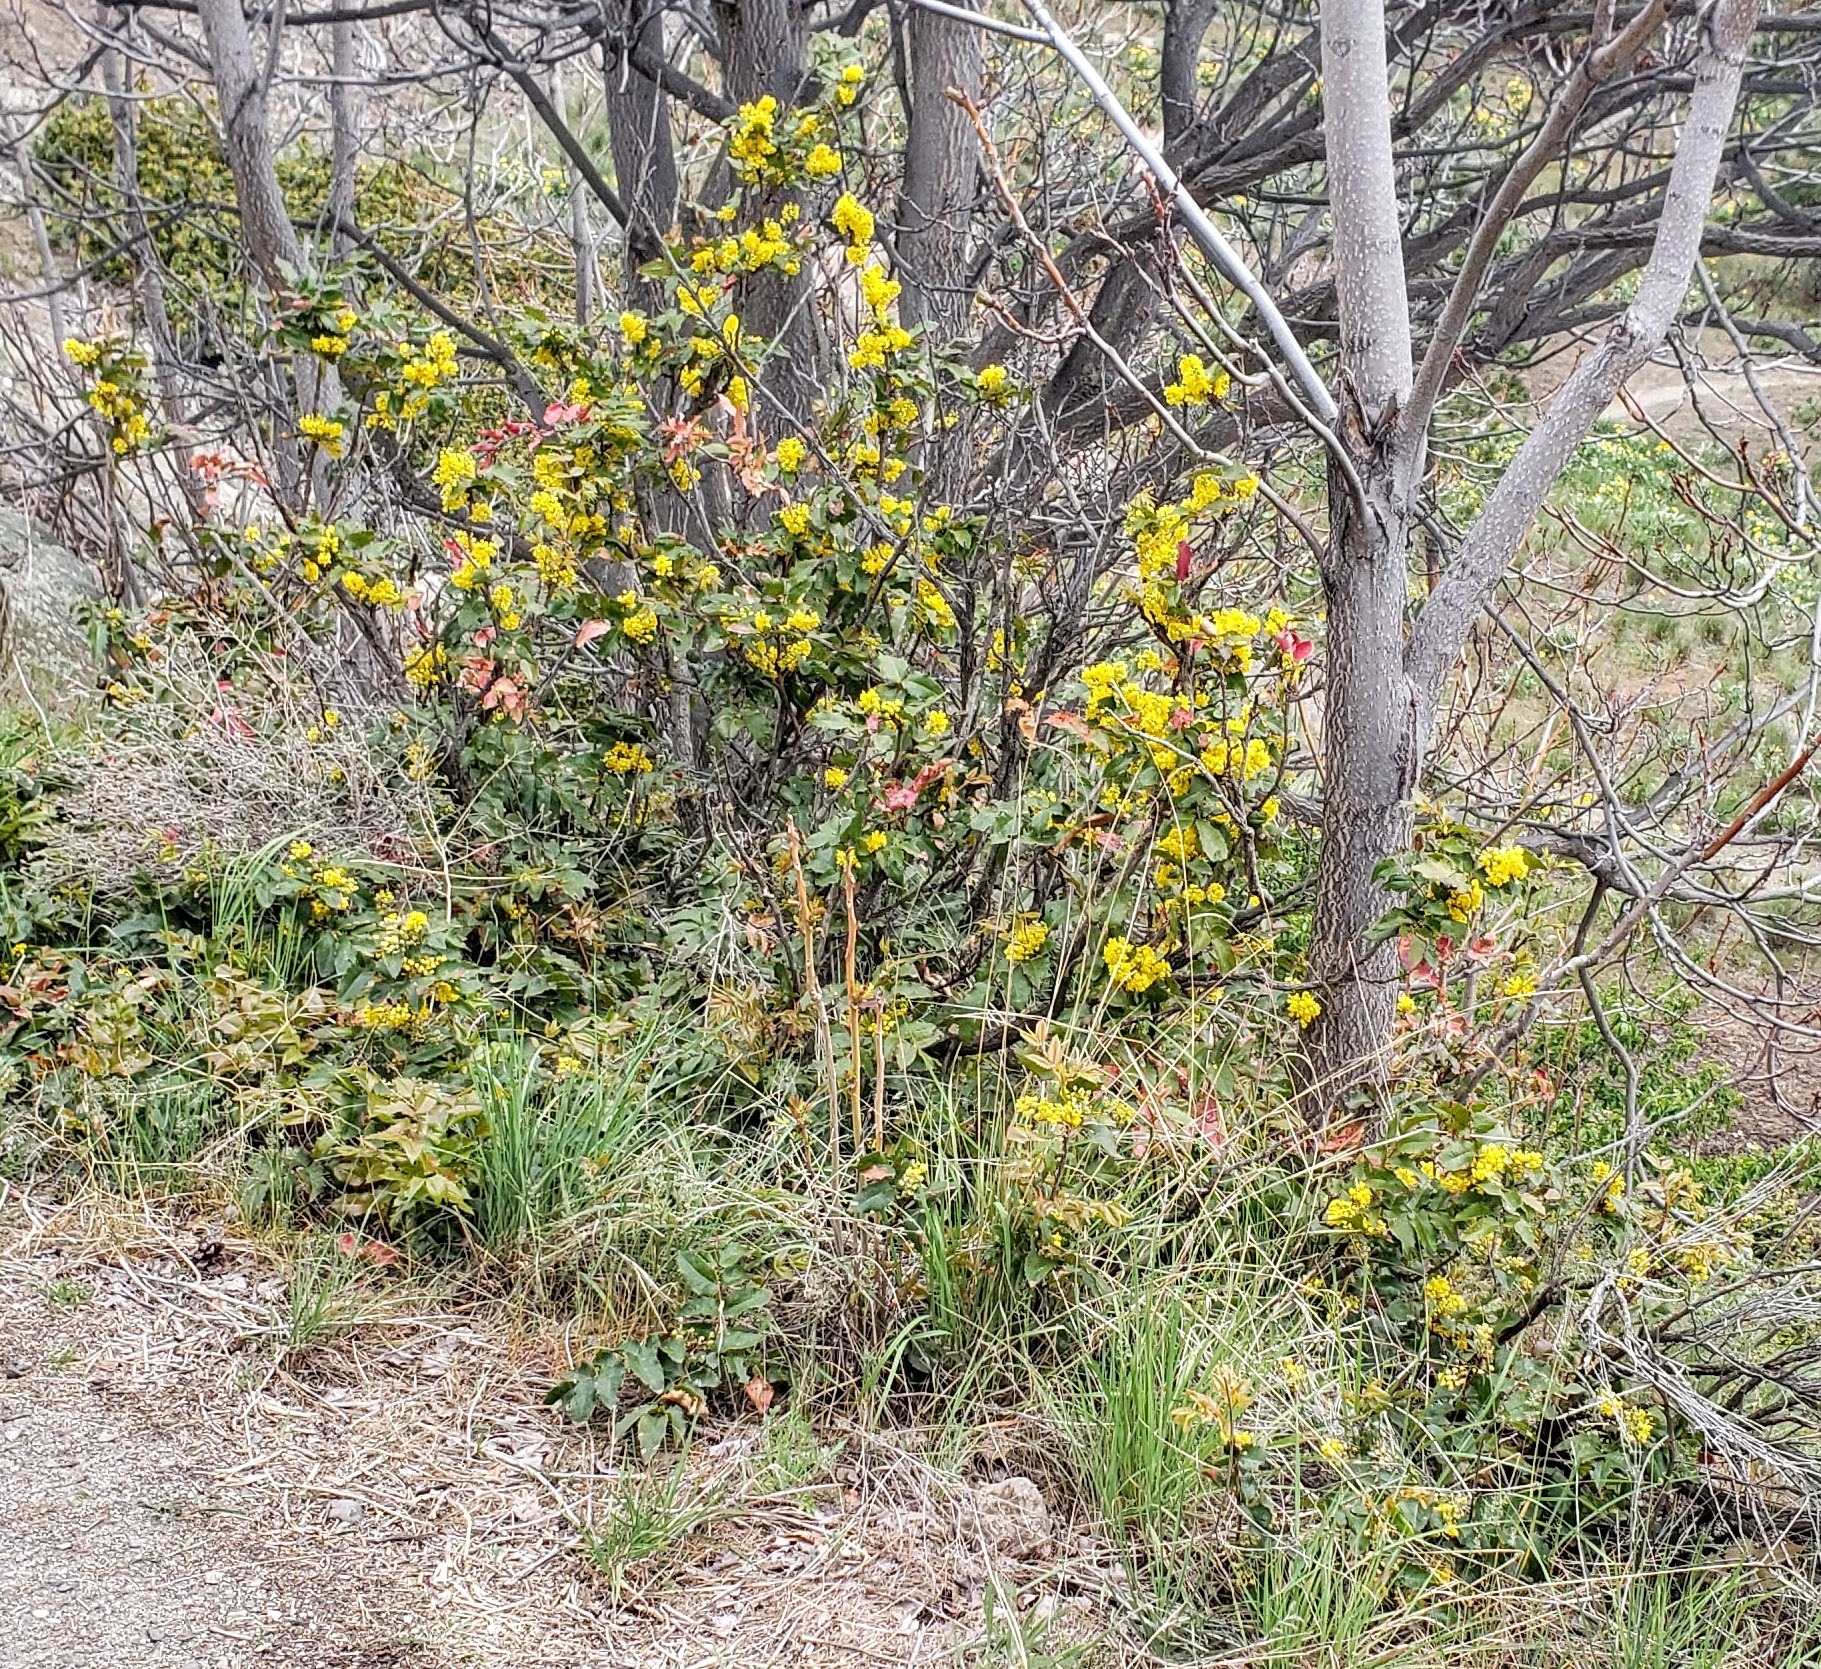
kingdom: Plantae
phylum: Tracheophyta
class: Magnoliopsida
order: Ranunculales
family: Berberidaceae
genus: Mahonia
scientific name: Mahonia aquifolium
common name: Oregon-grape
